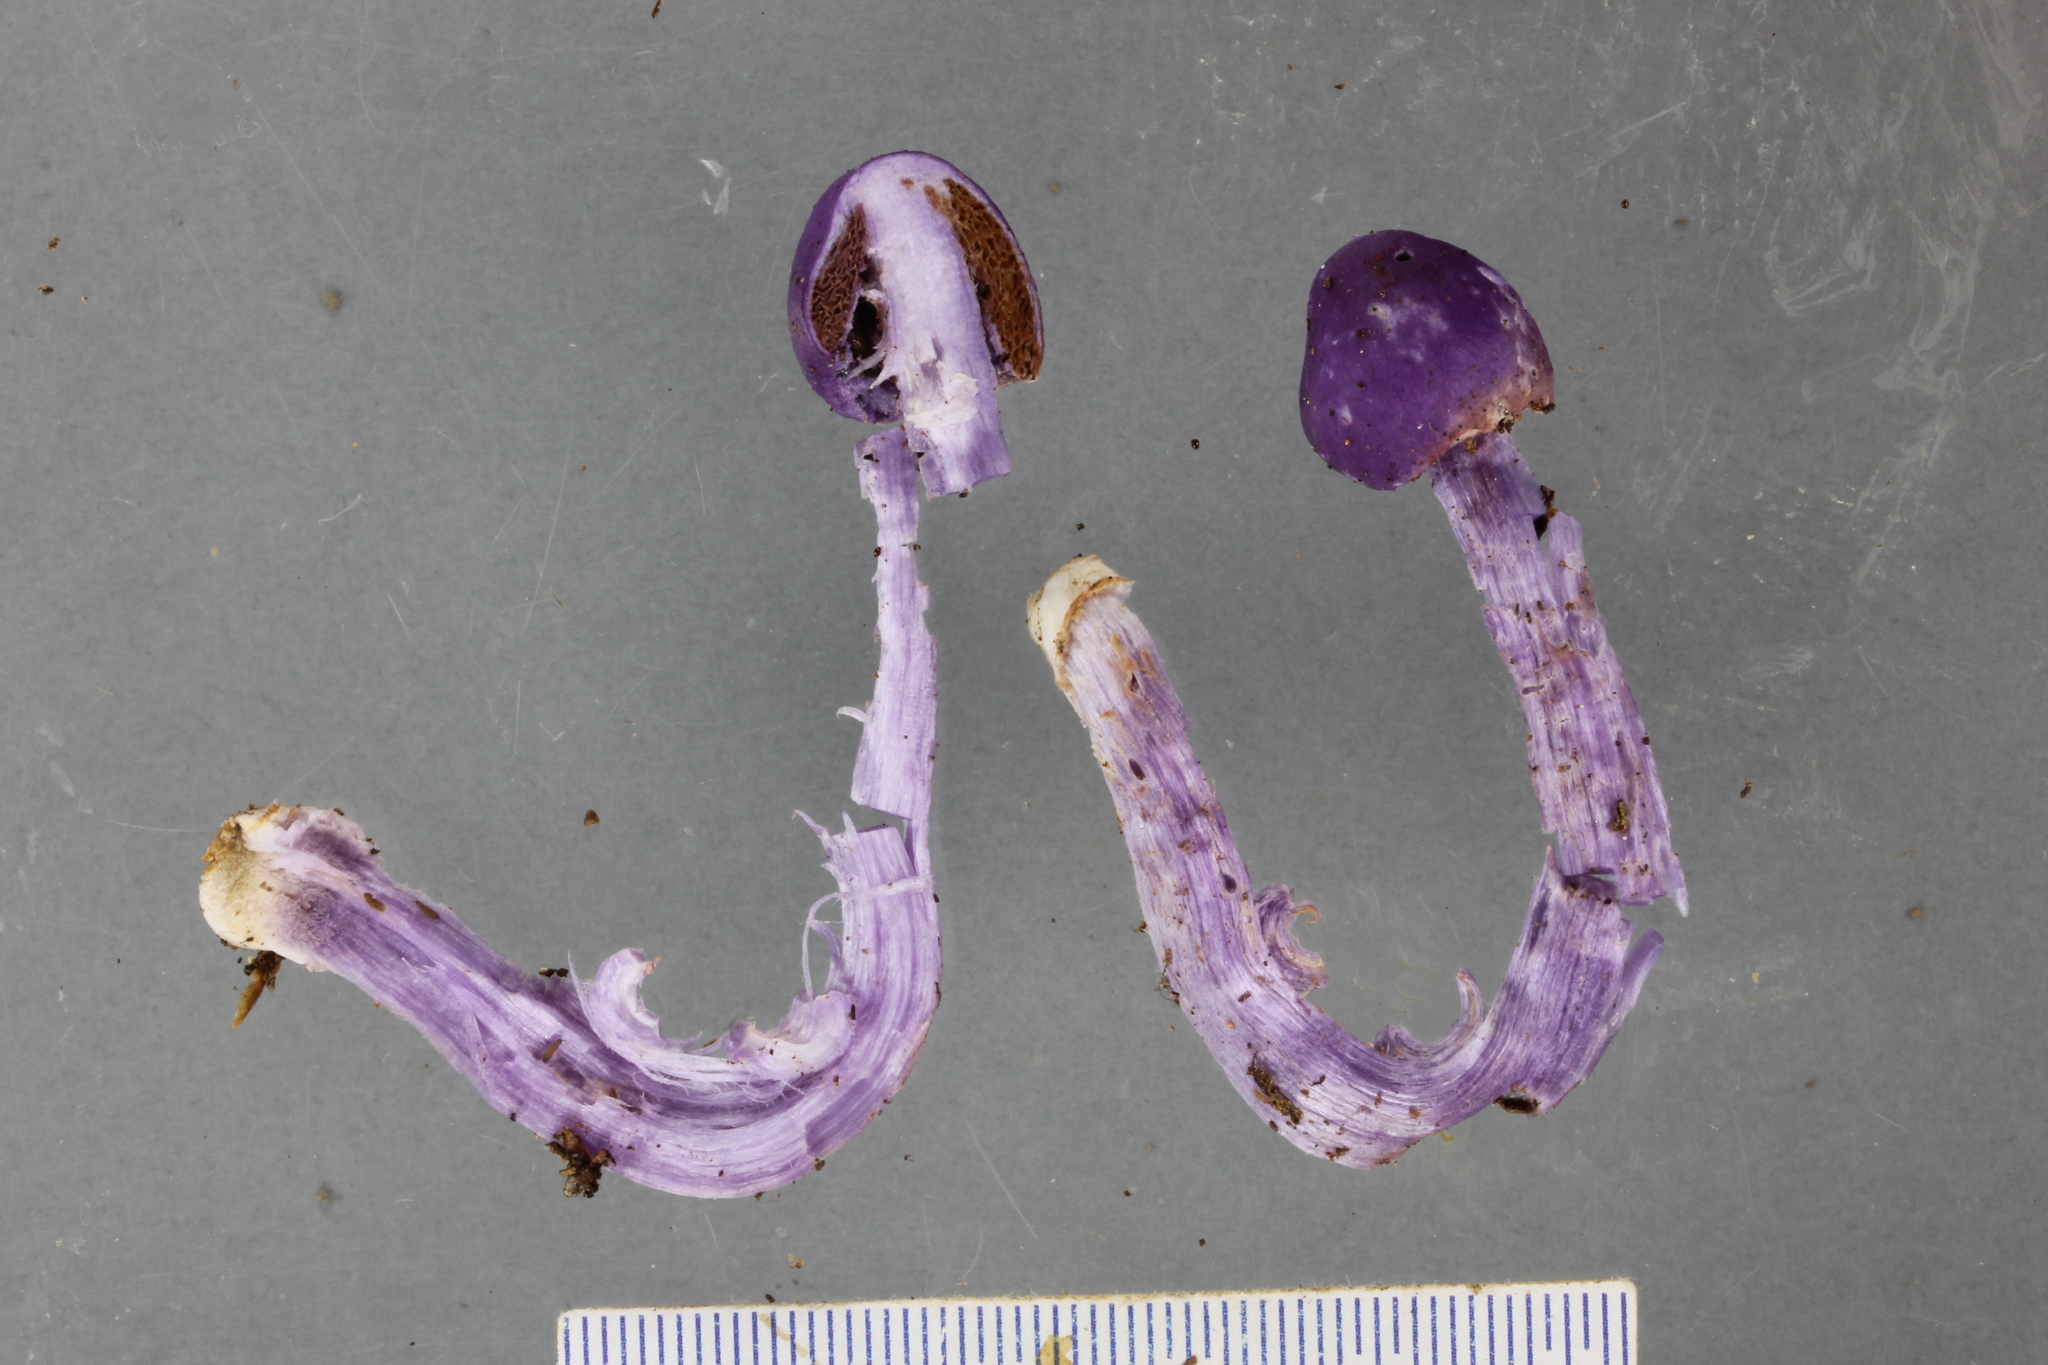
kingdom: Fungi
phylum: Basidiomycota
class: Agaricomycetes
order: Agaricales
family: Cortinariaceae
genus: Cortinarius
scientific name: Cortinarius violaceovolvatus
